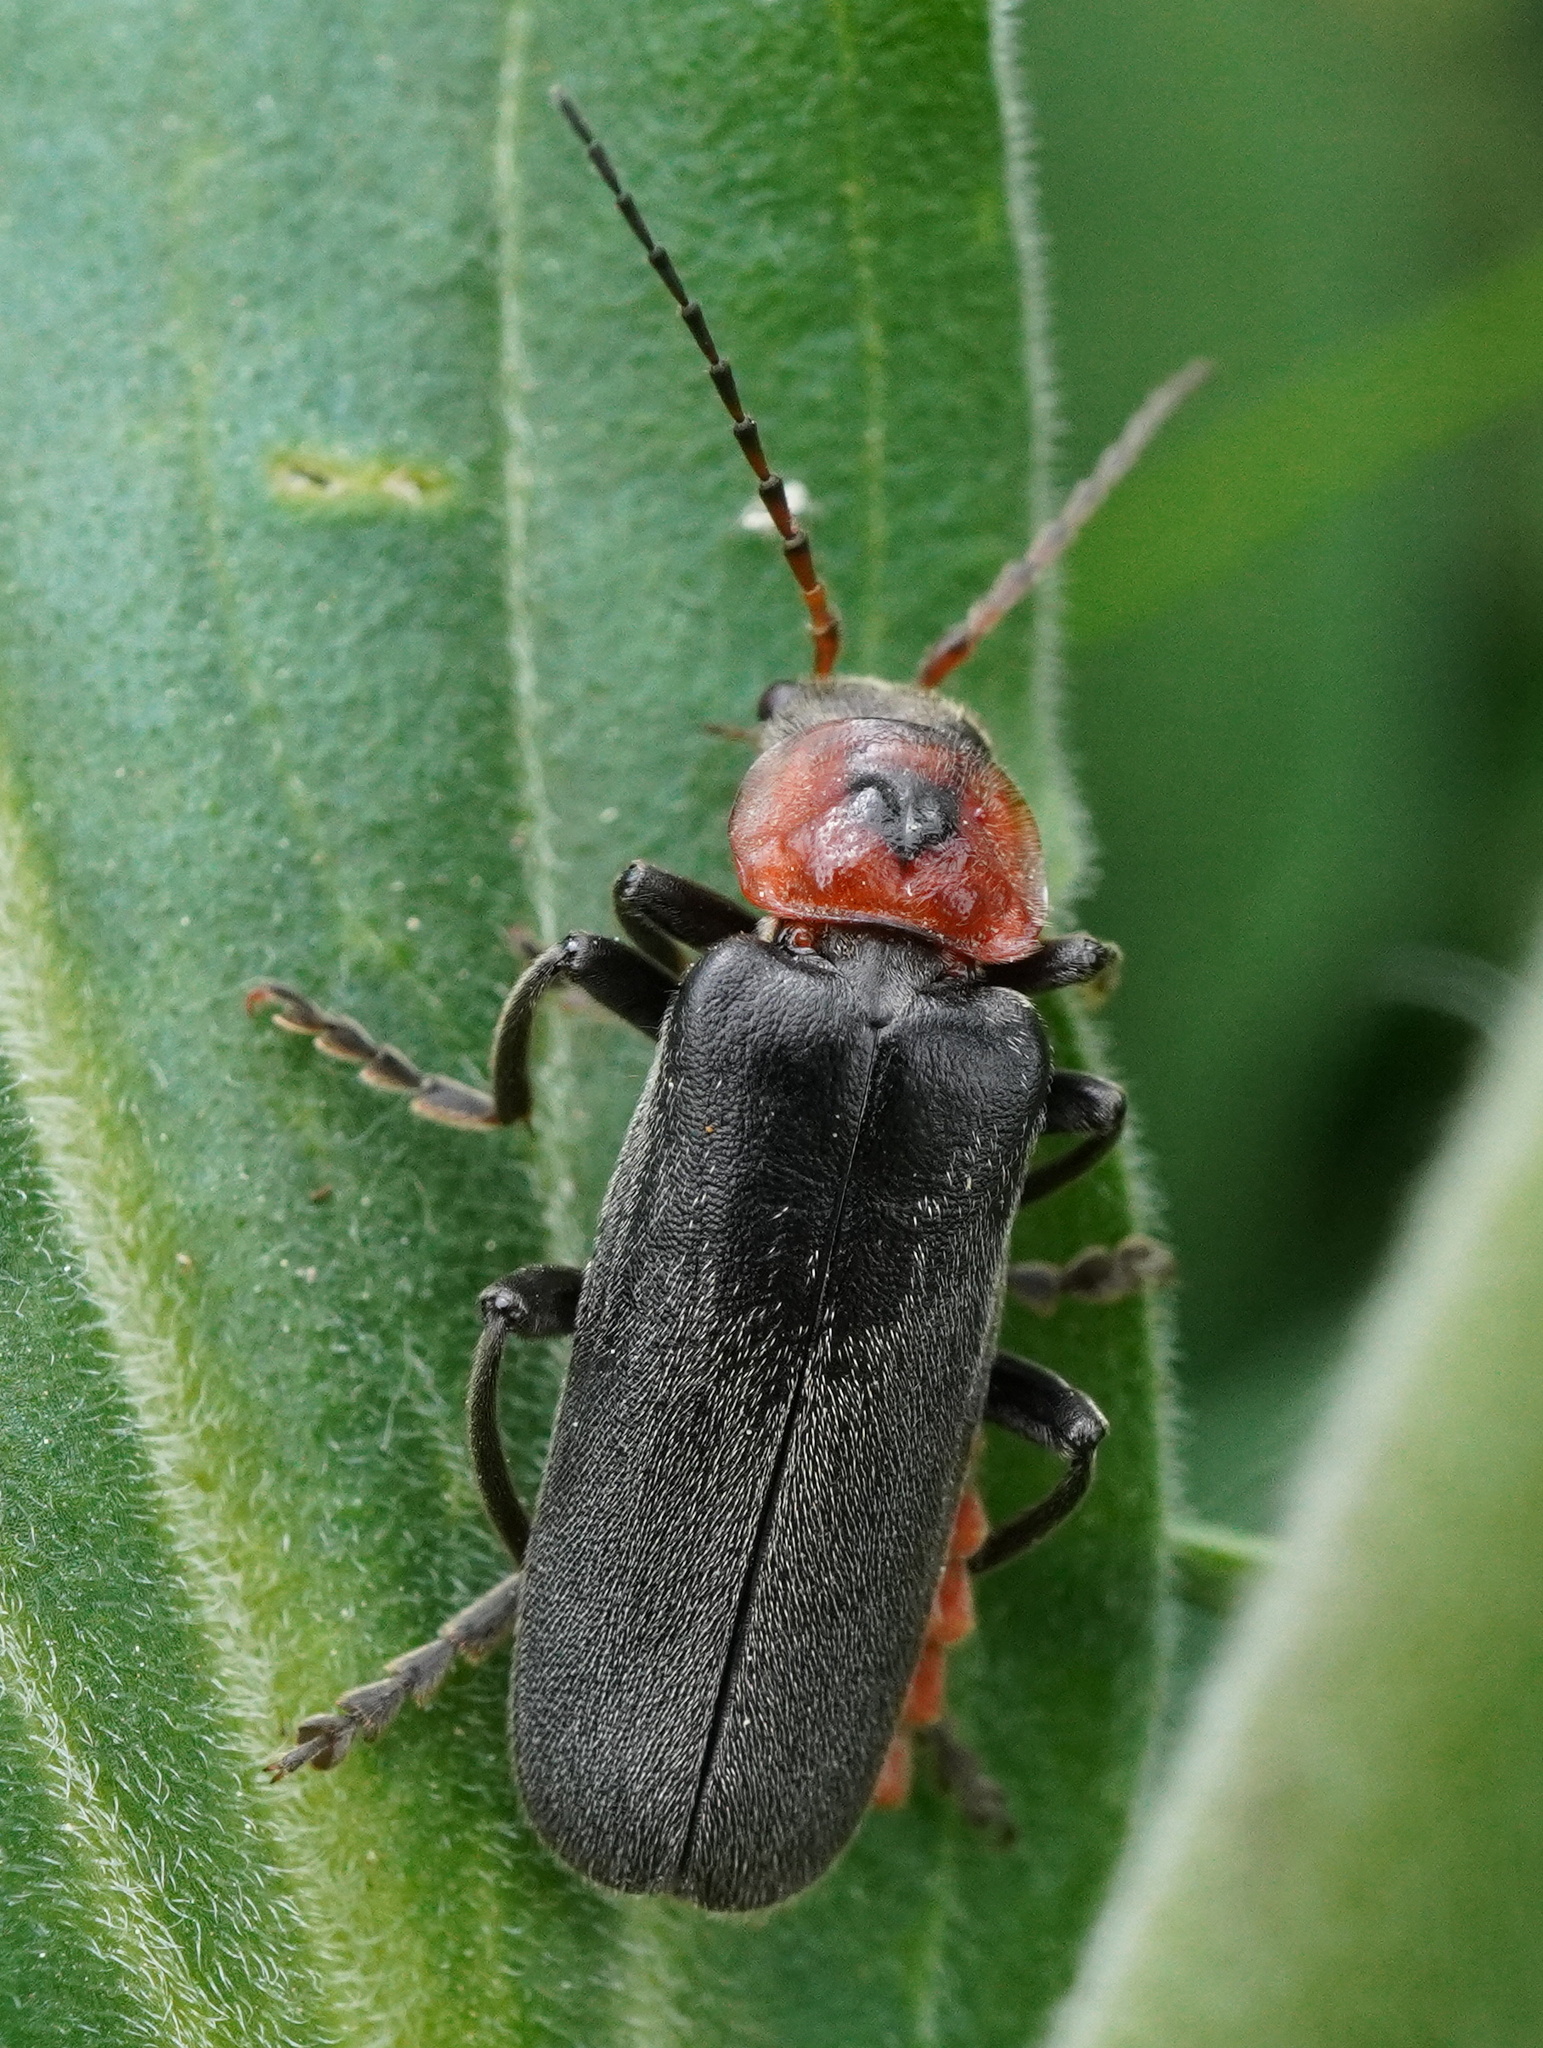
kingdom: Animalia
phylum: Arthropoda
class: Insecta
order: Coleoptera
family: Cantharidae
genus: Cantharis
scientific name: Cantharis rustica
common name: Soldier beetle
